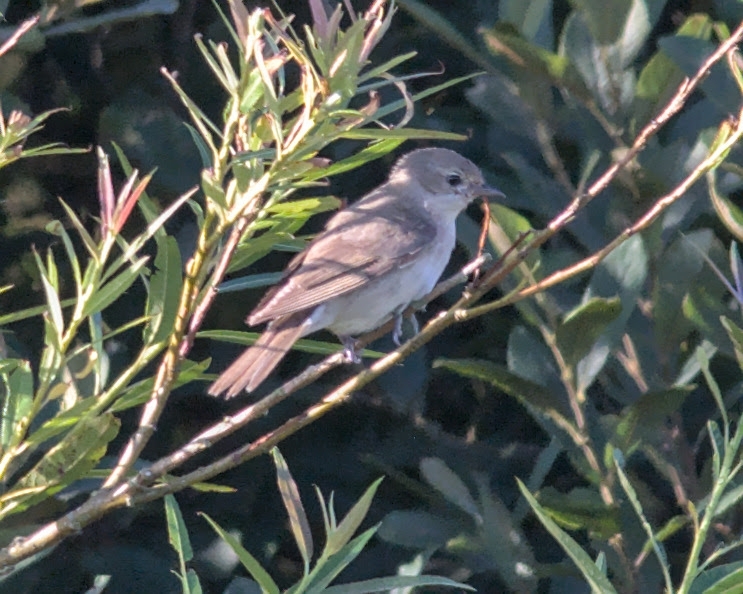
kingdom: Animalia
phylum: Chordata
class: Aves
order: Passeriformes
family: Sylviidae
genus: Sylvia
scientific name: Sylvia borin
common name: Garden warbler
